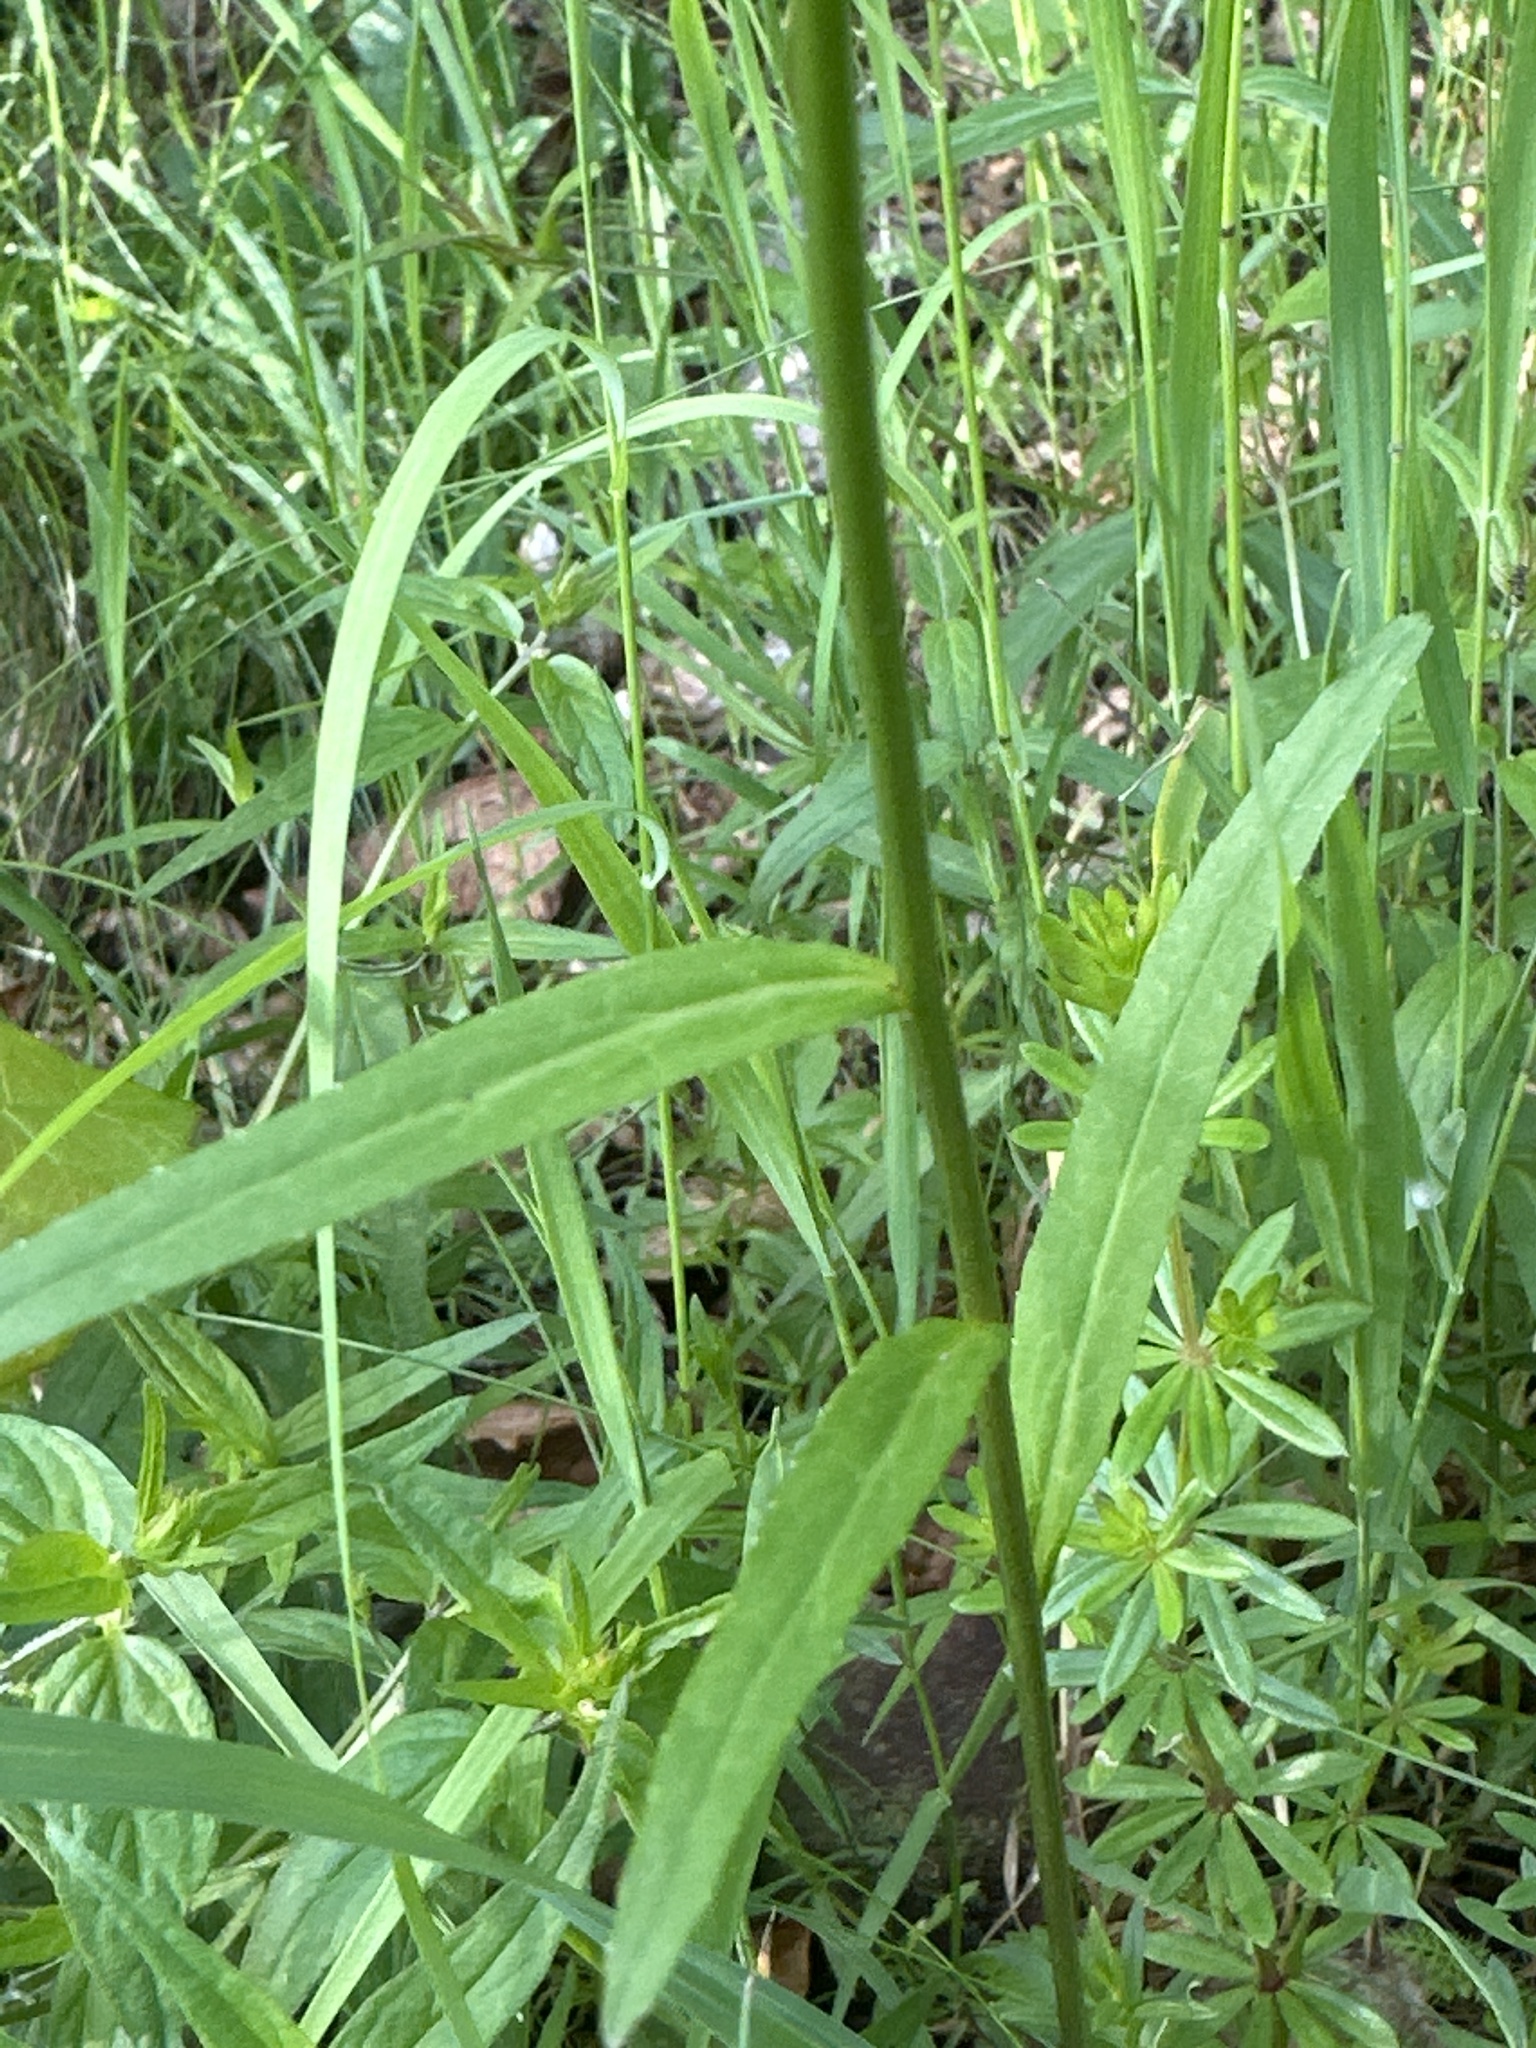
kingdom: Plantae
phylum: Tracheophyta
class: Magnoliopsida
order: Asterales
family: Campanulaceae
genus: Phyteuma
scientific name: Phyteuma persicifolium
